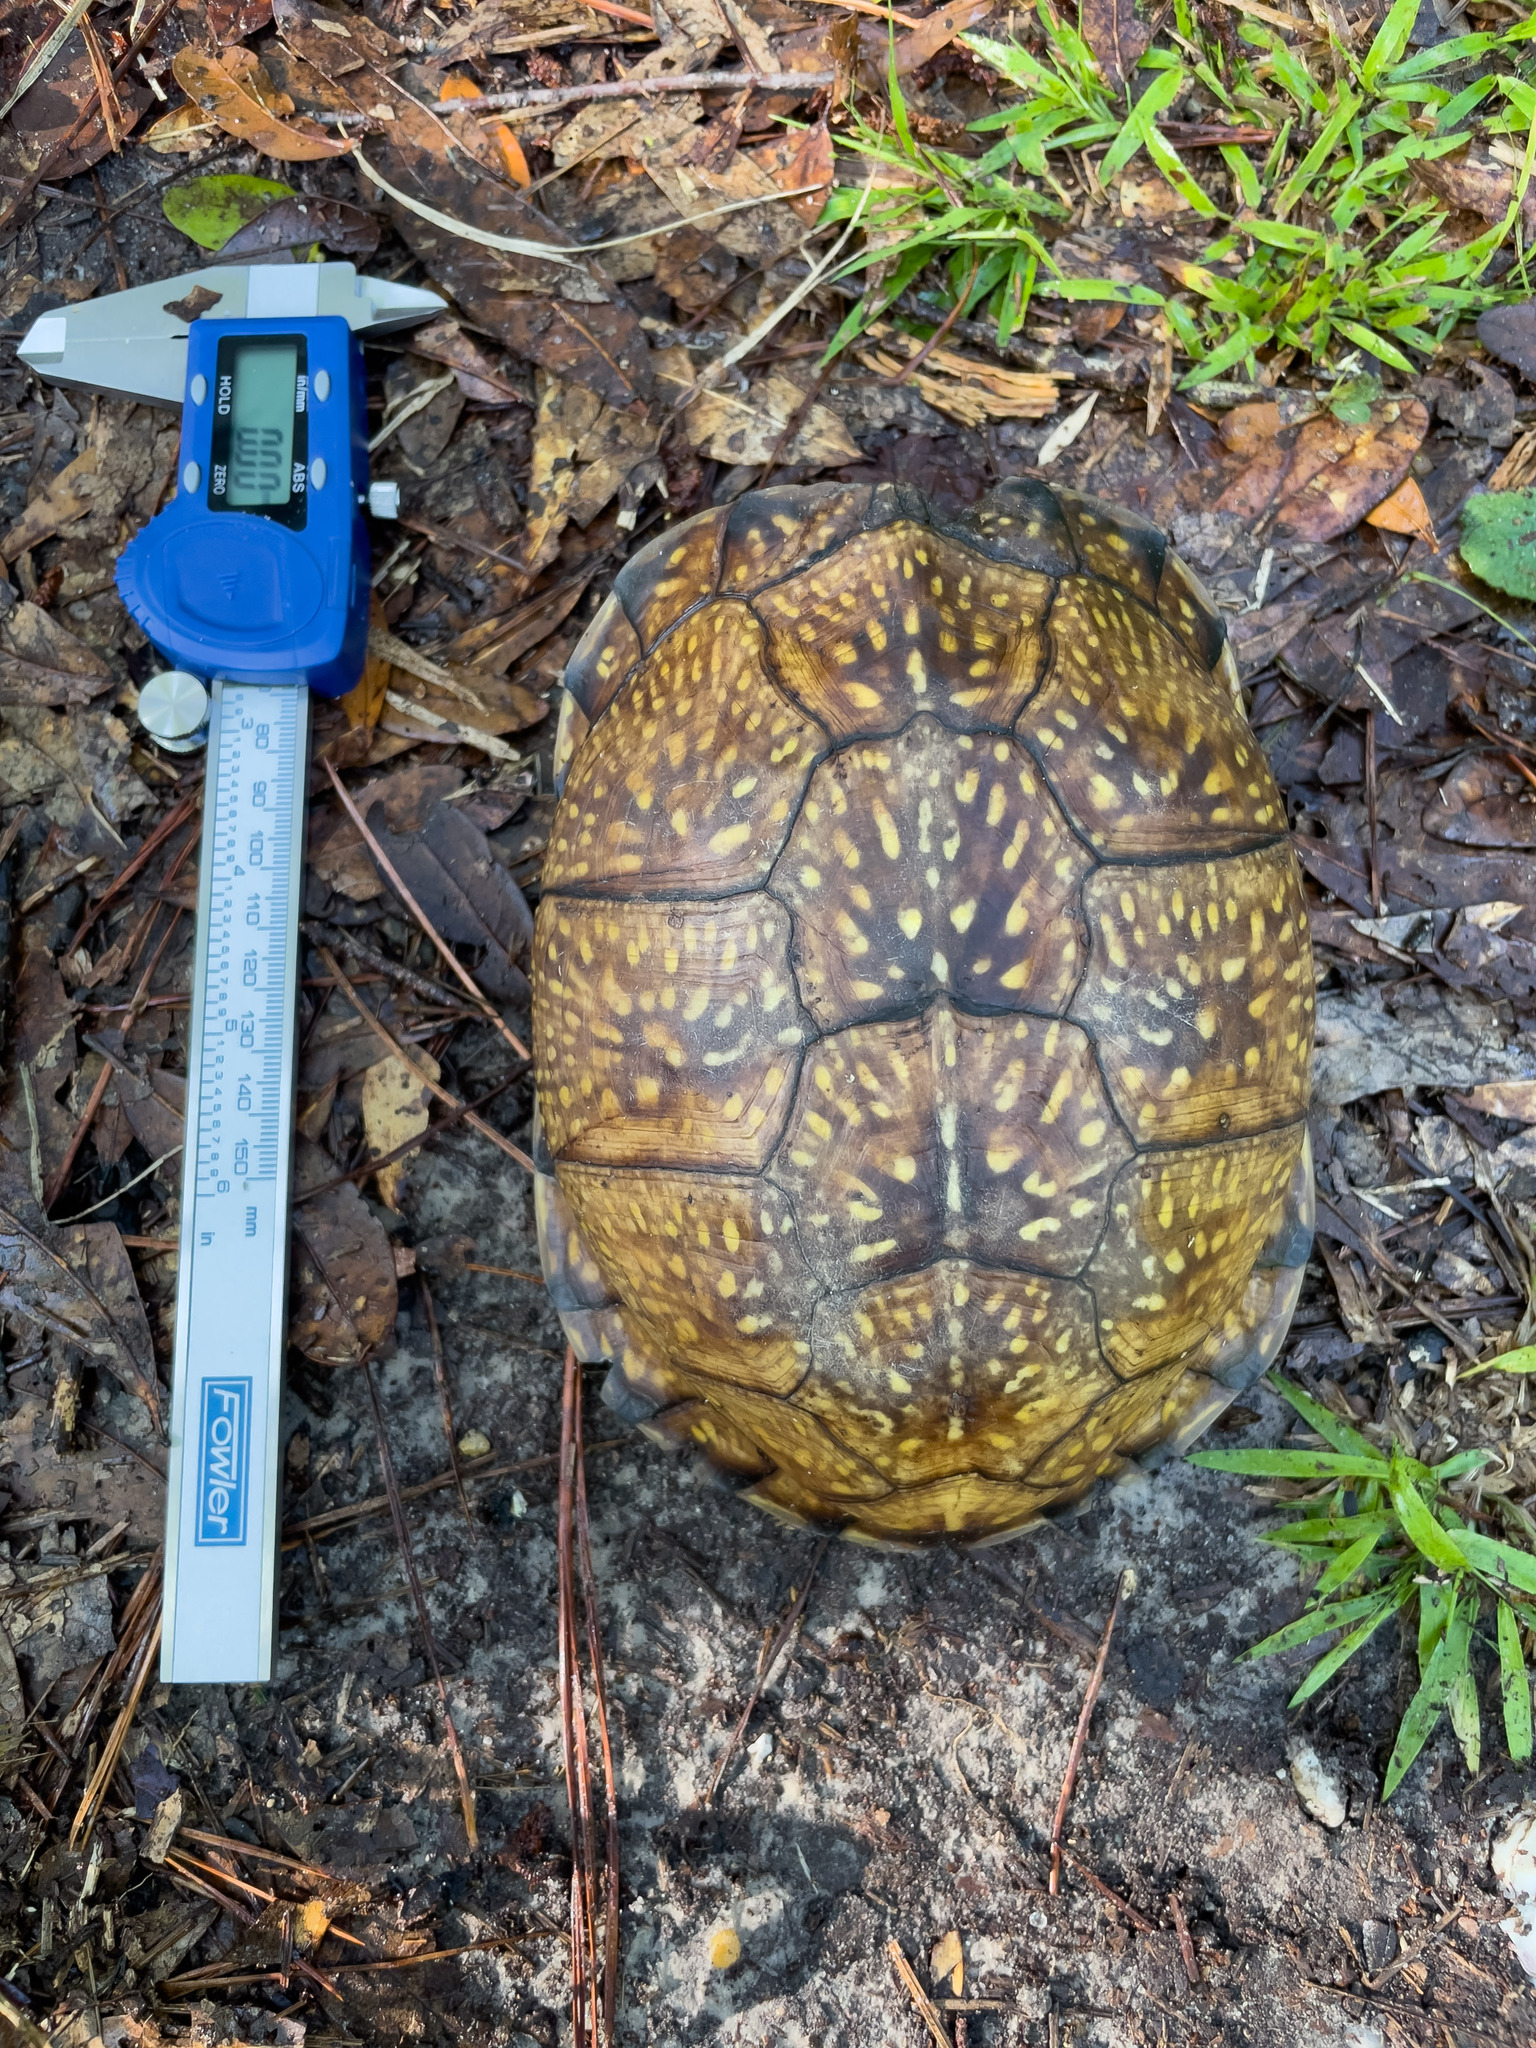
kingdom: Animalia
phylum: Chordata
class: Testudines
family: Emydidae
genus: Terrapene
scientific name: Terrapene carolina
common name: Common box turtle
